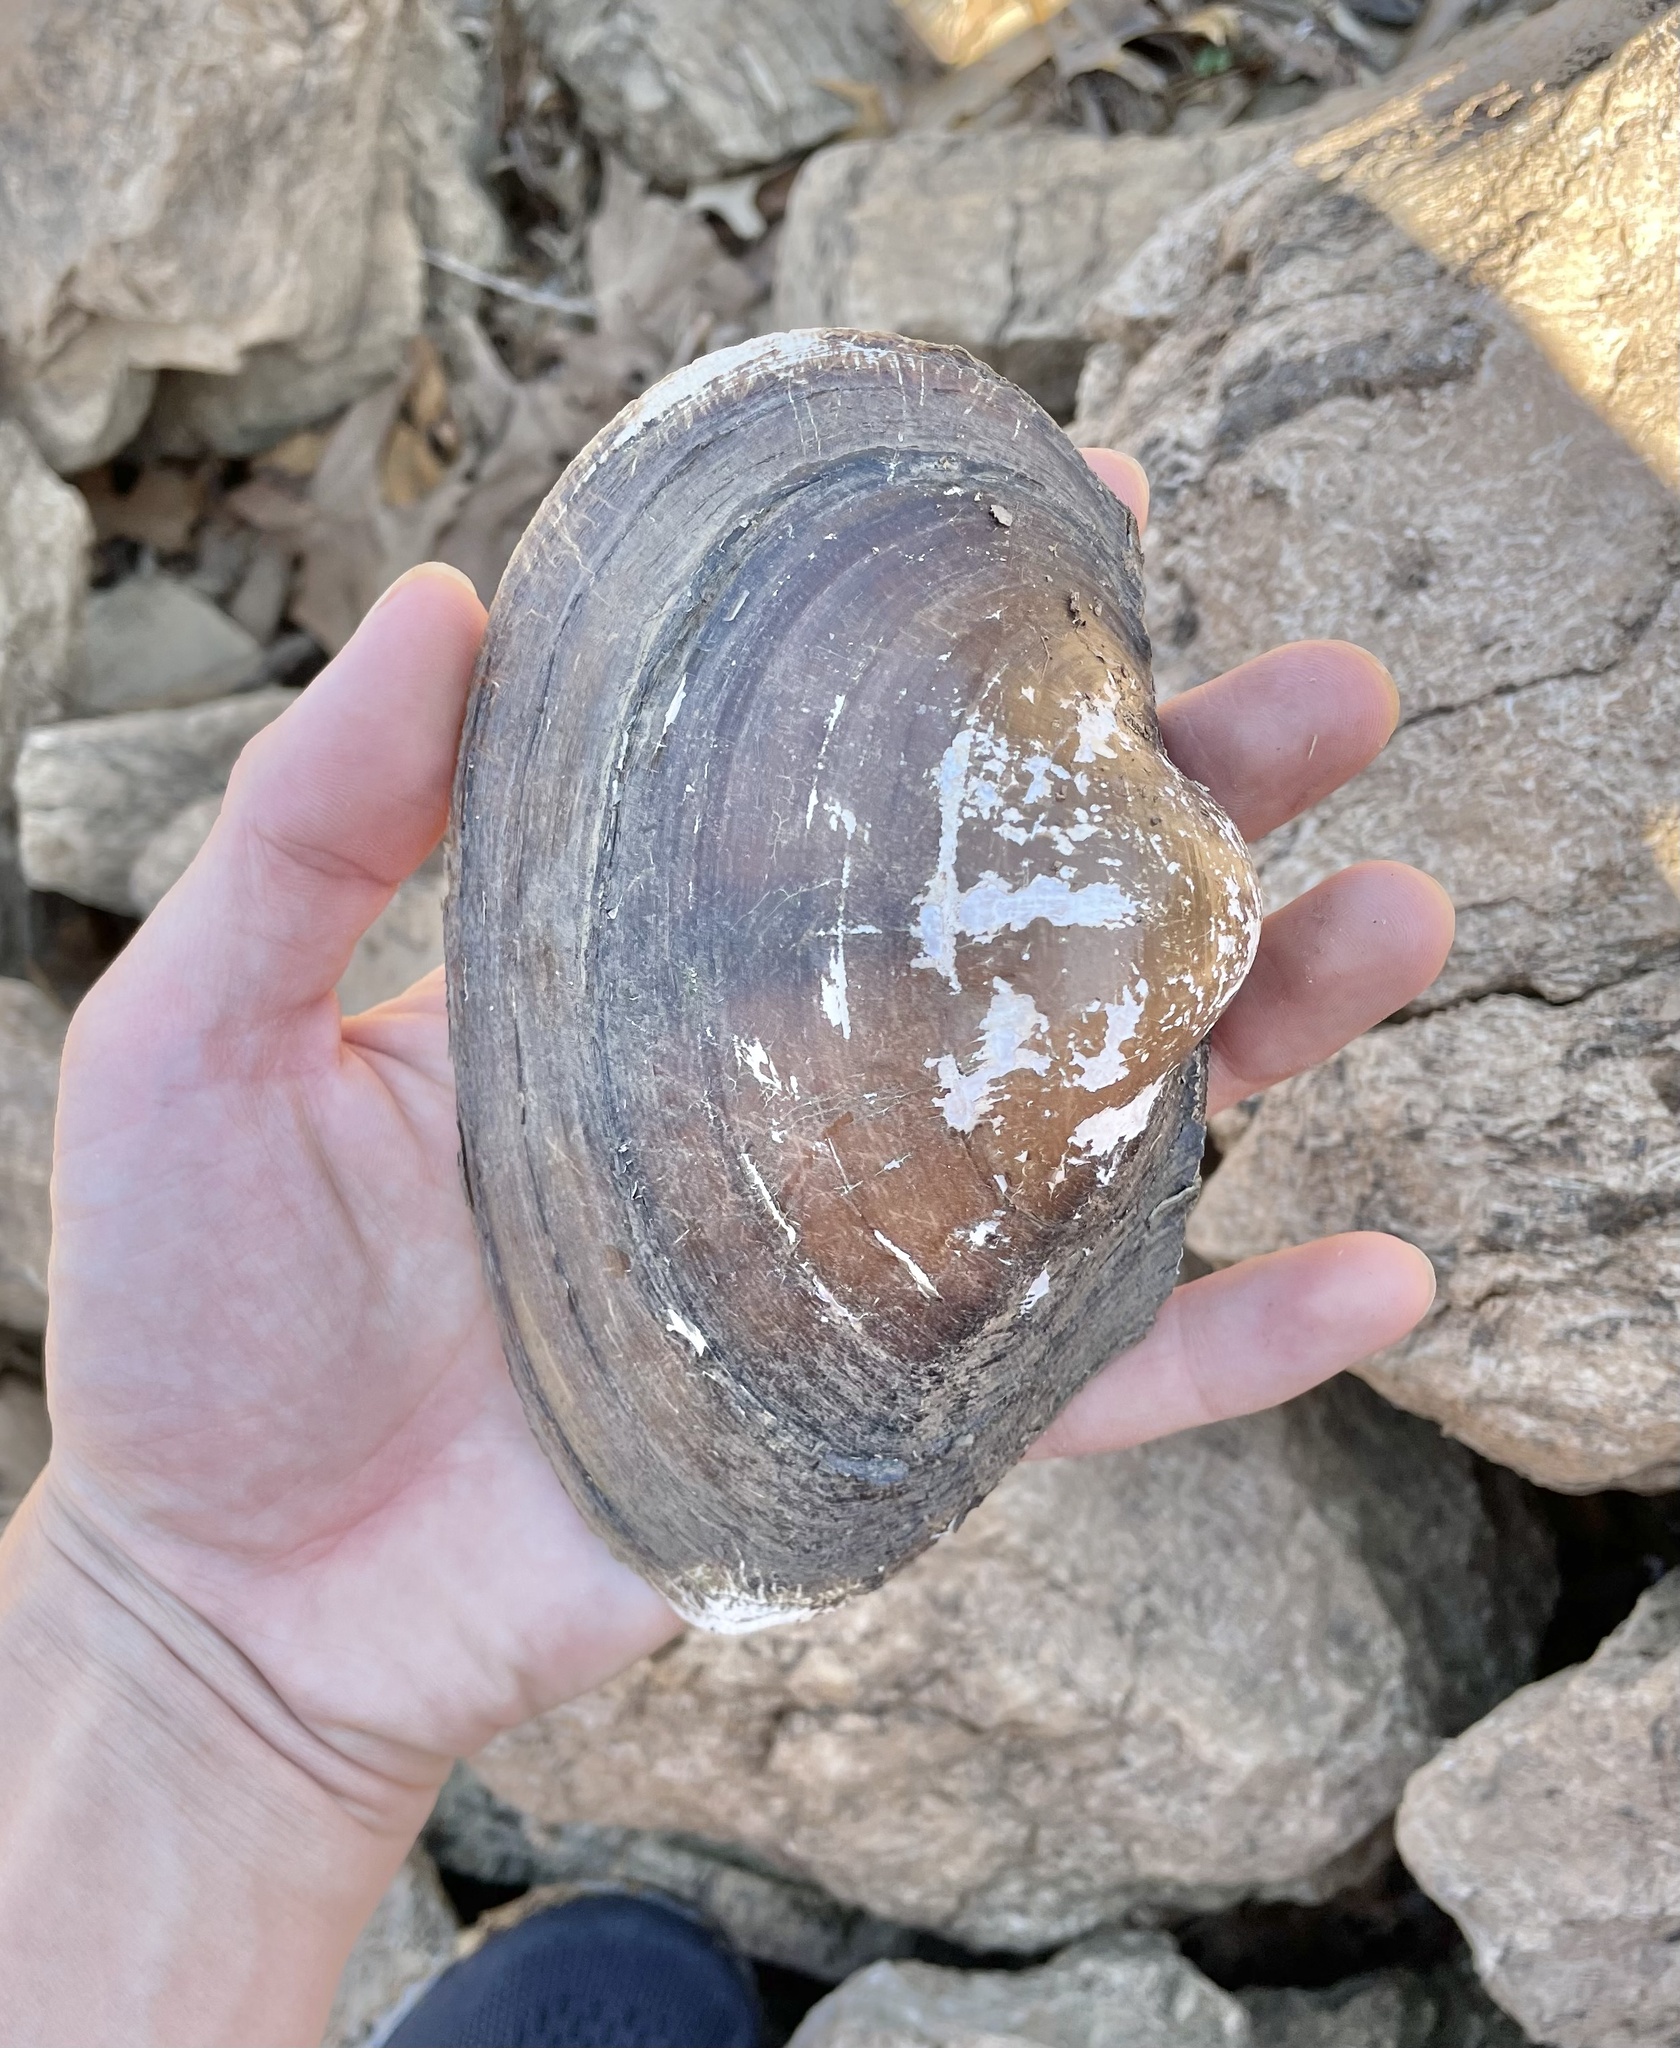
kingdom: Animalia
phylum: Mollusca
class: Bivalvia
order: Unionida
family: Unionidae
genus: Pyganodon
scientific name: Pyganodon grandis
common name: Giant floater
